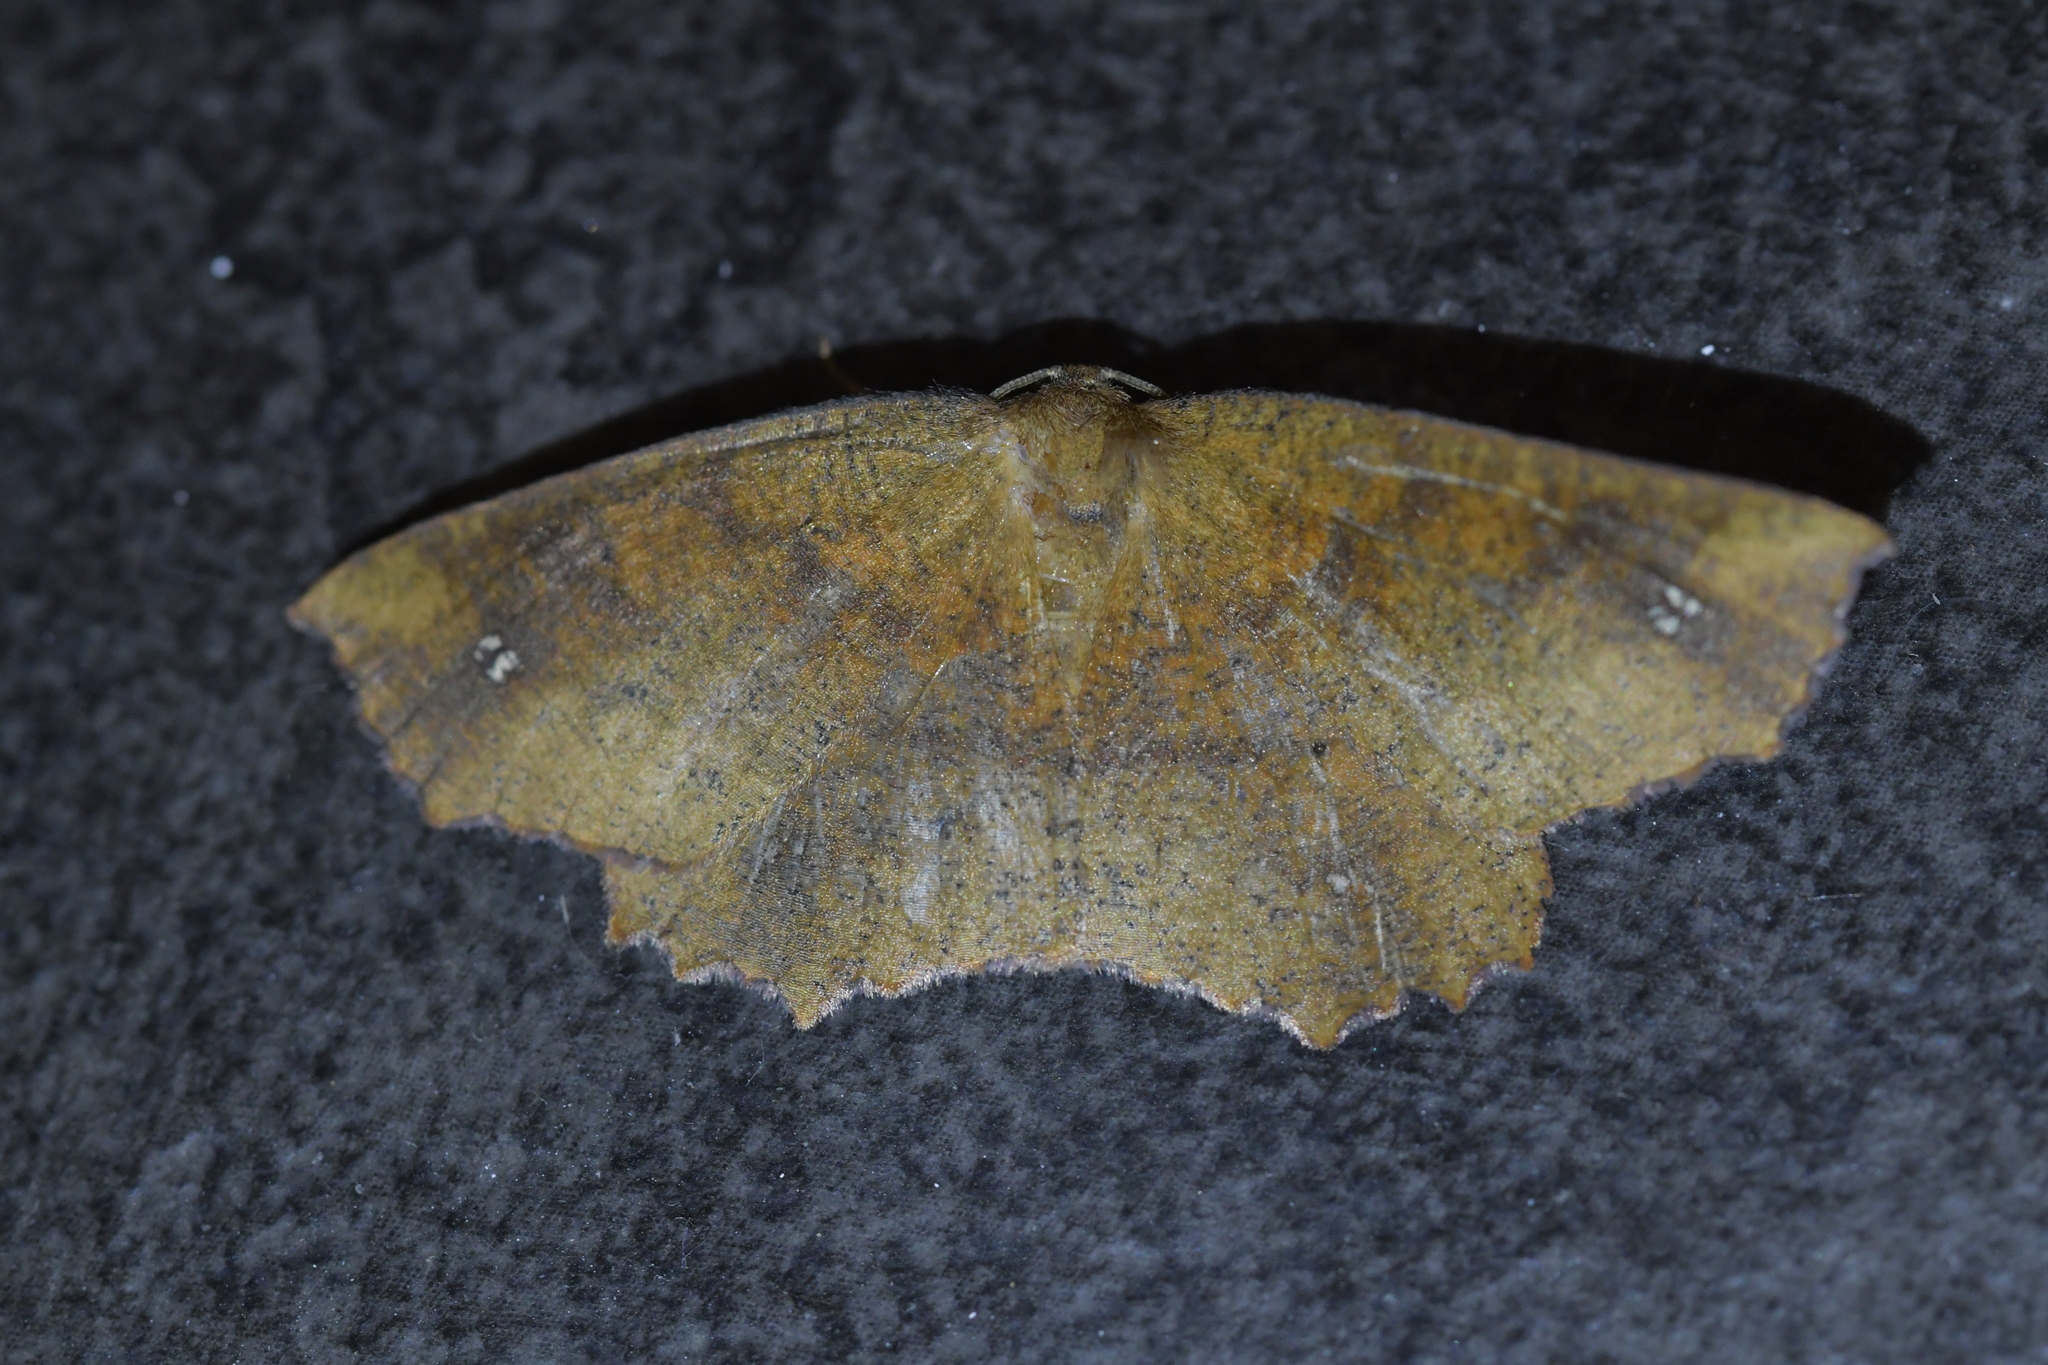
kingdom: Animalia
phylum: Arthropoda
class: Insecta
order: Lepidoptera
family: Geometridae
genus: Xyridacma
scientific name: Xyridacma ustaria
